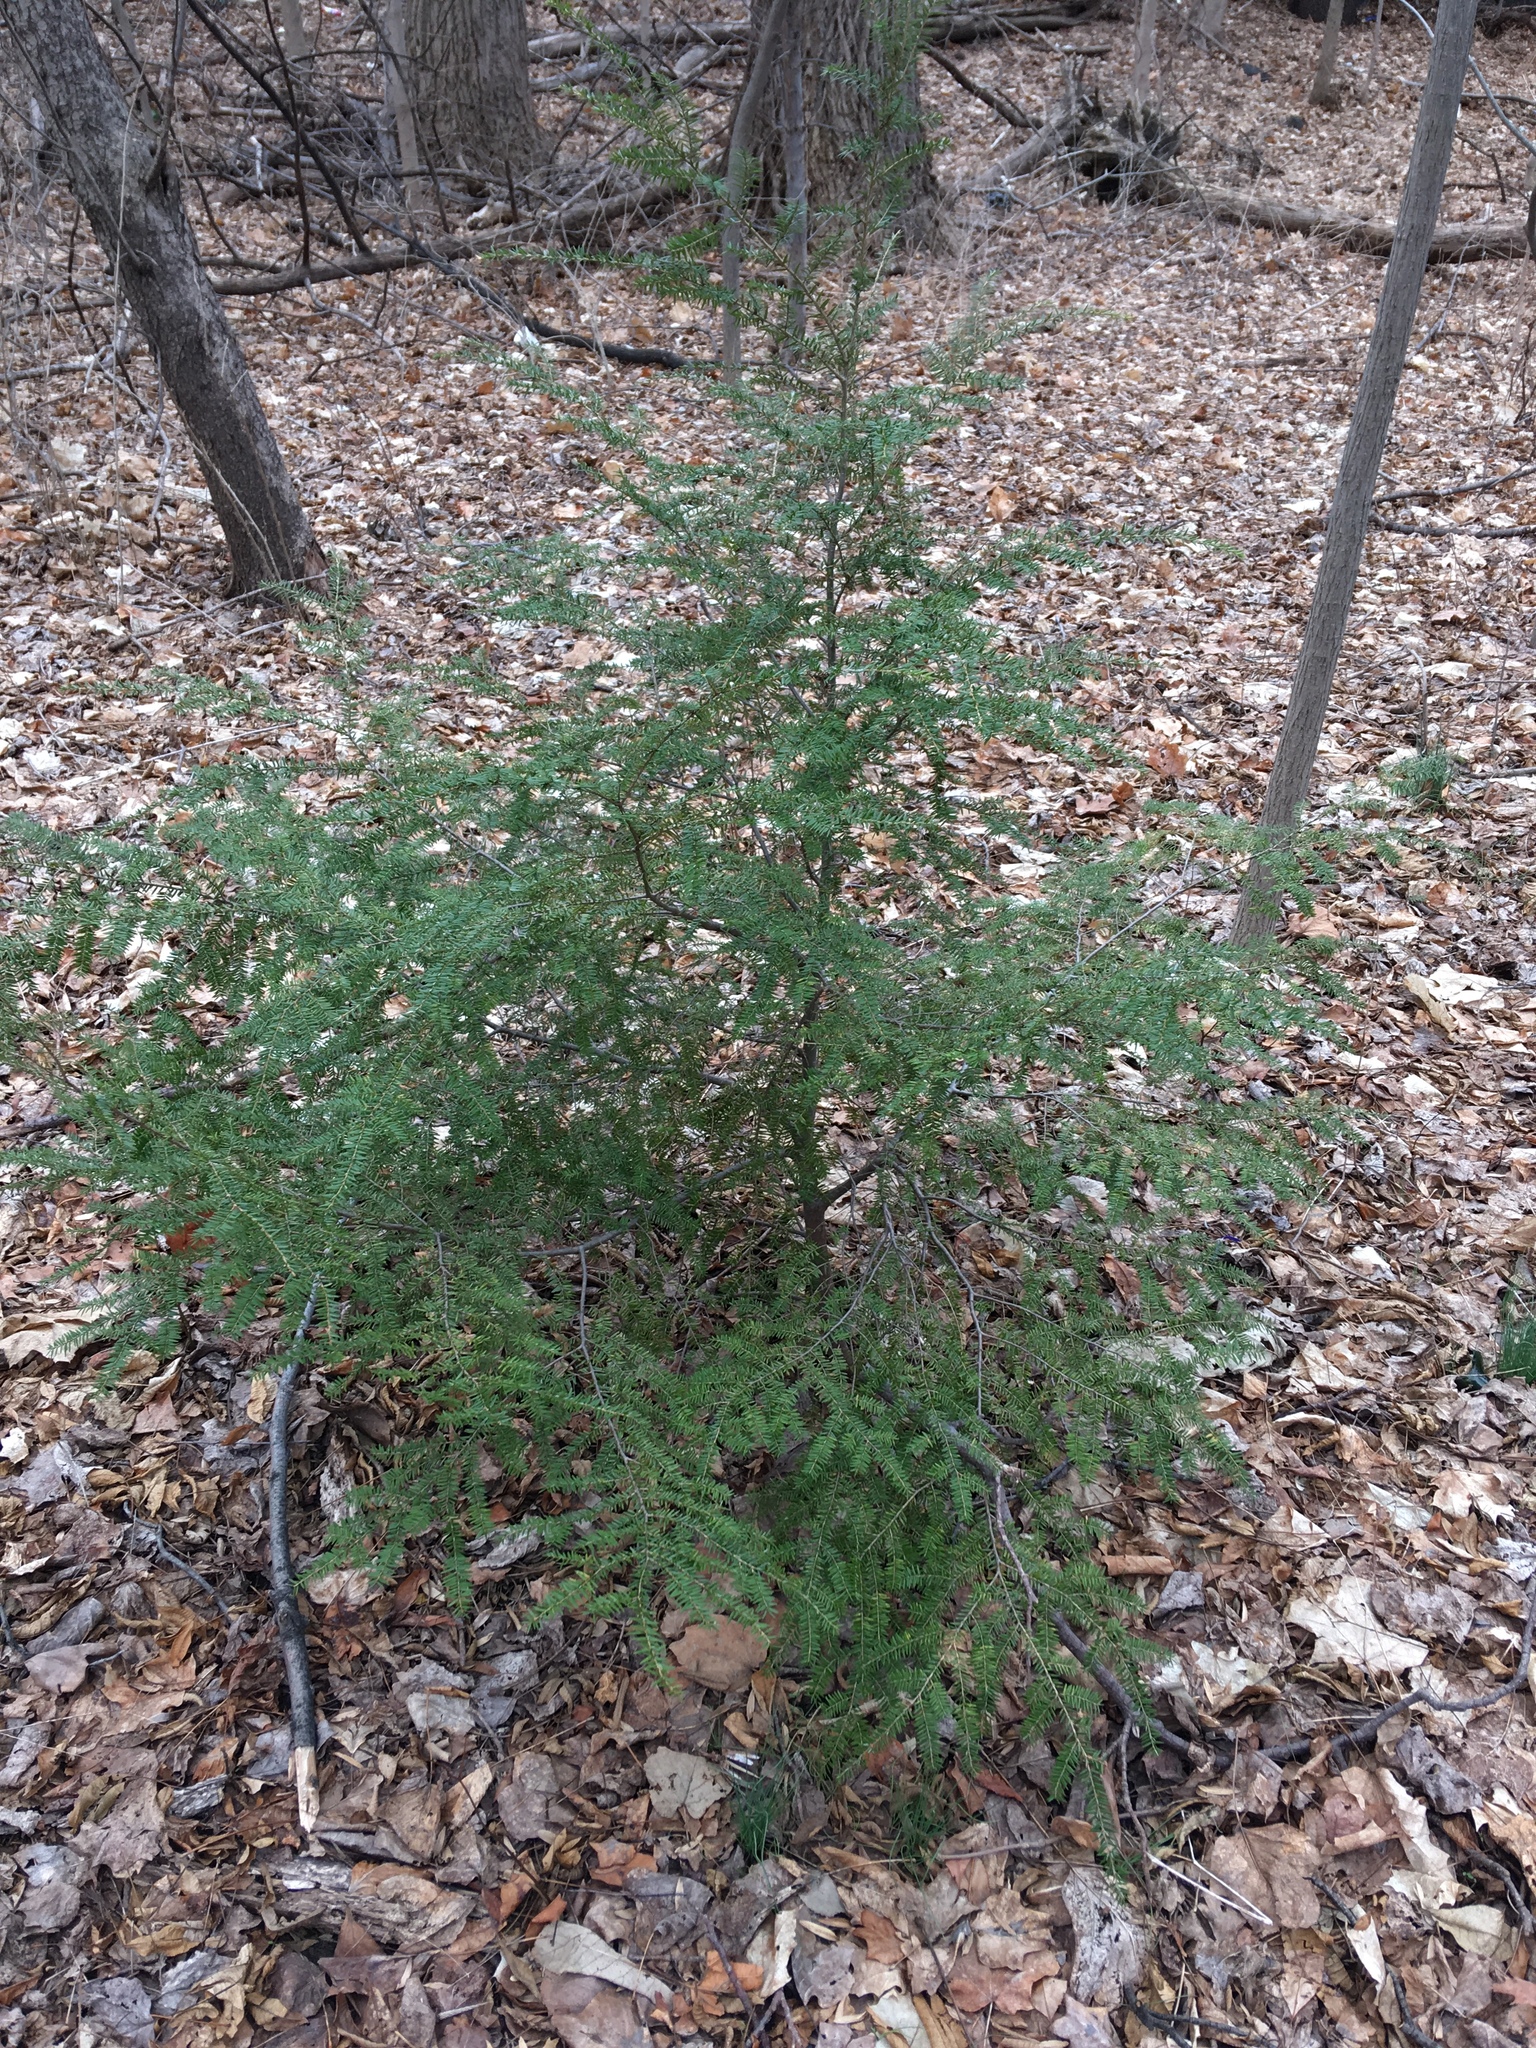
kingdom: Plantae
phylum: Tracheophyta
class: Pinopsida
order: Pinales
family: Pinaceae
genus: Tsuga
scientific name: Tsuga canadensis
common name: Eastern hemlock
